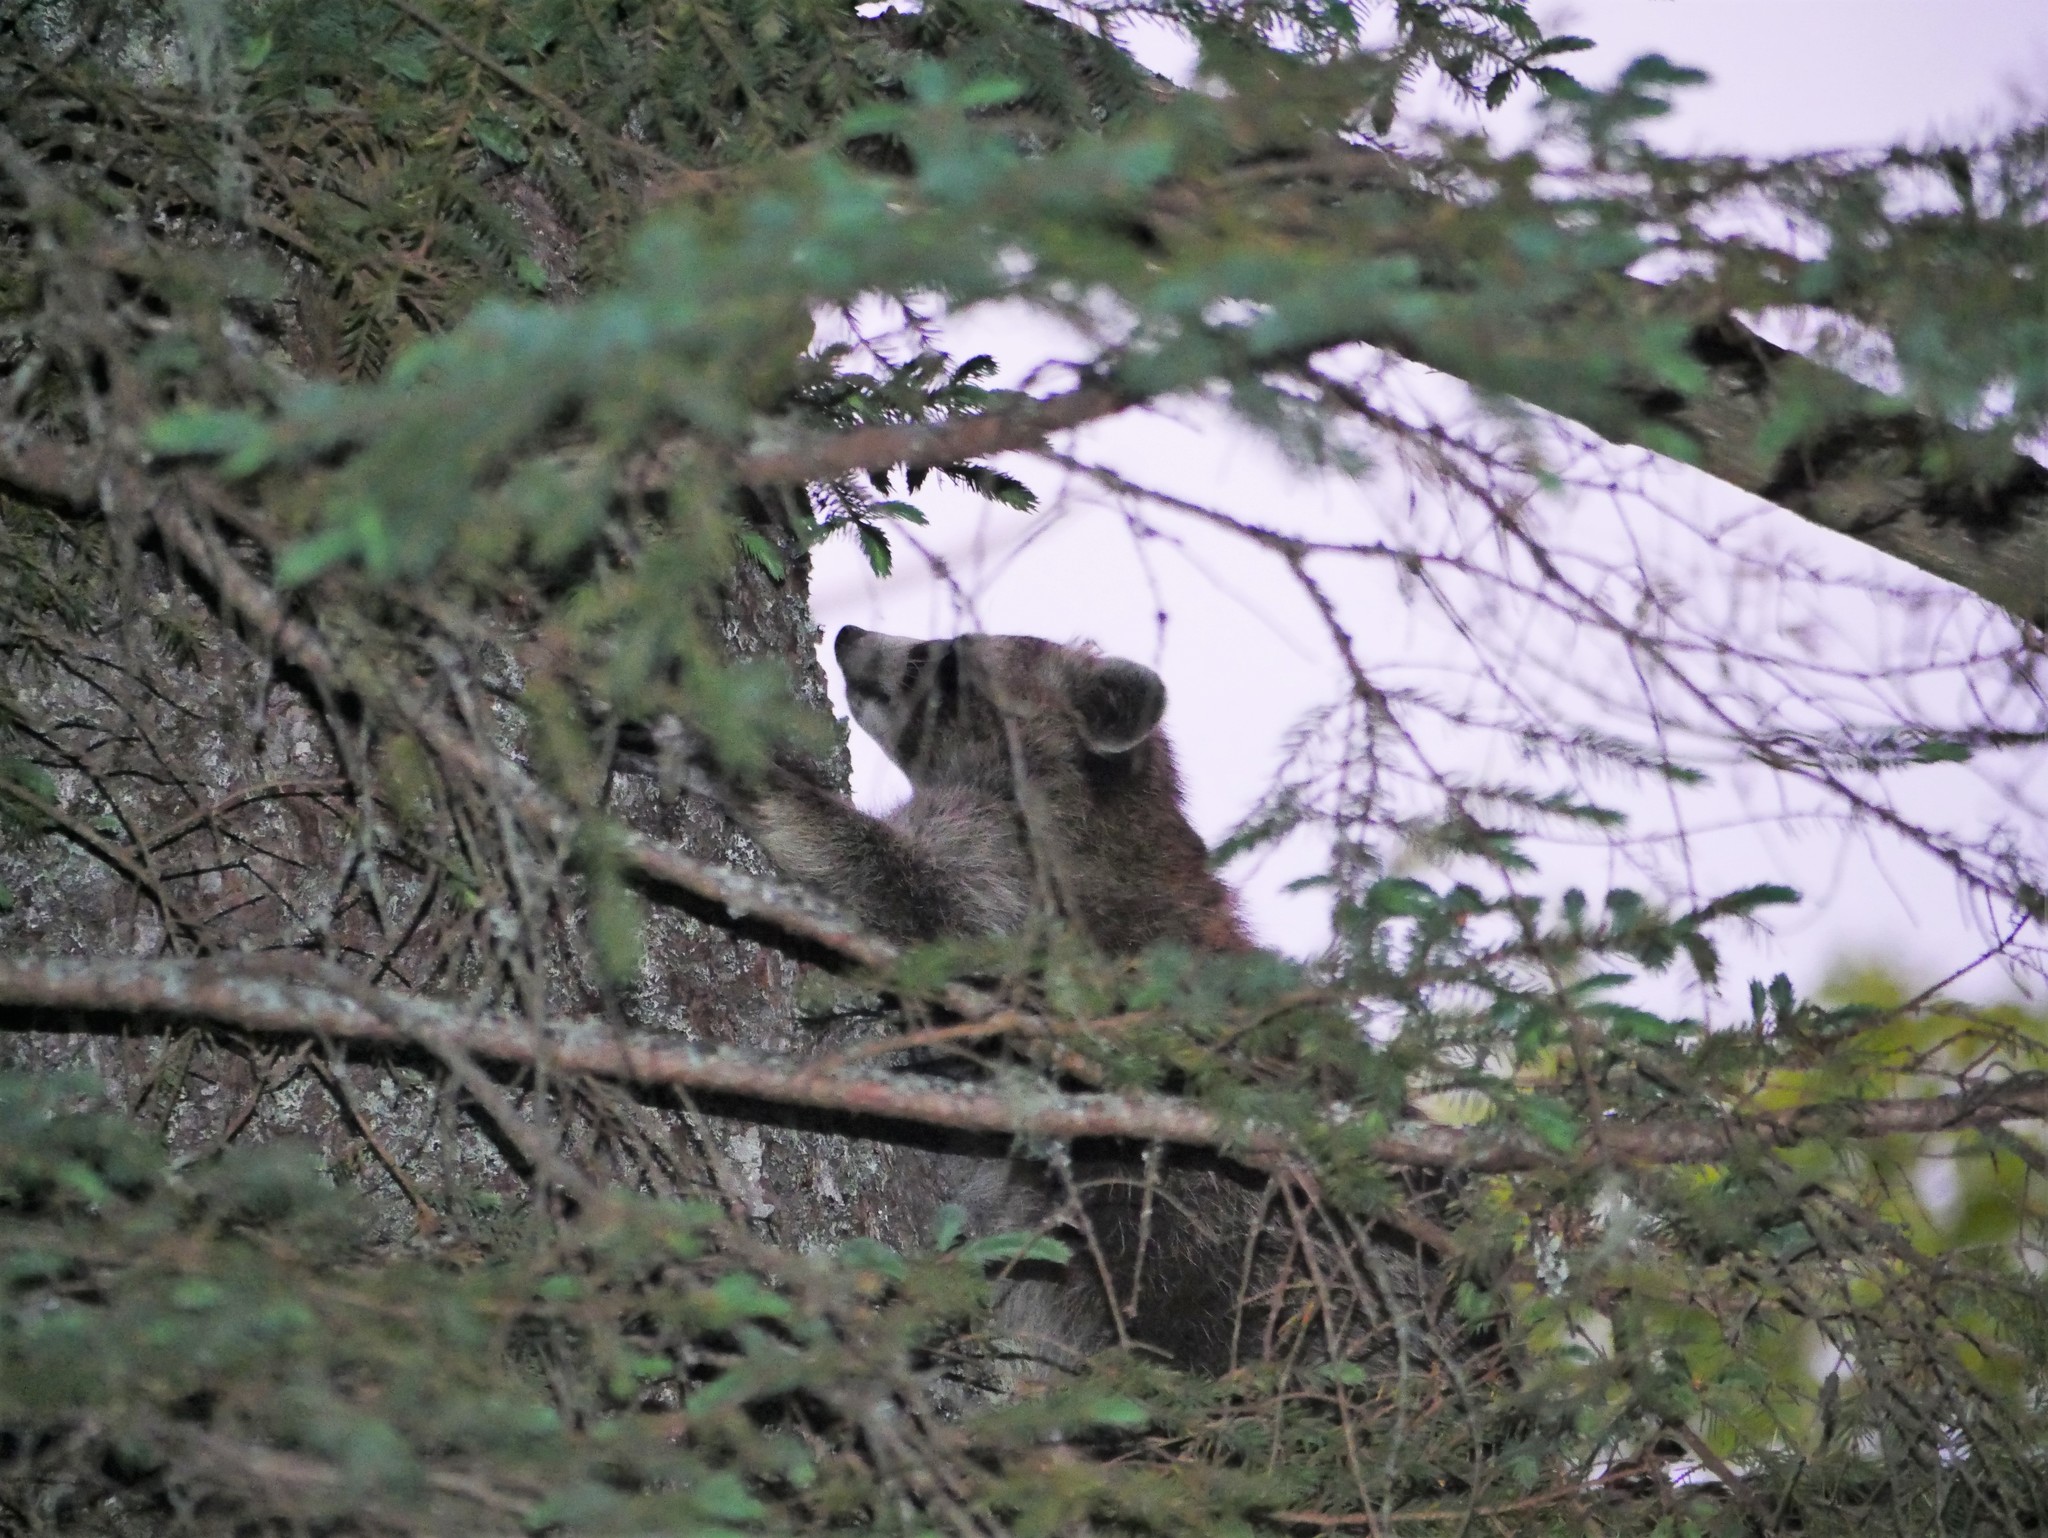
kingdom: Animalia
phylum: Chordata
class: Mammalia
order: Carnivora
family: Procyonidae
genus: Procyon
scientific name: Procyon lotor
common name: Raccoon
